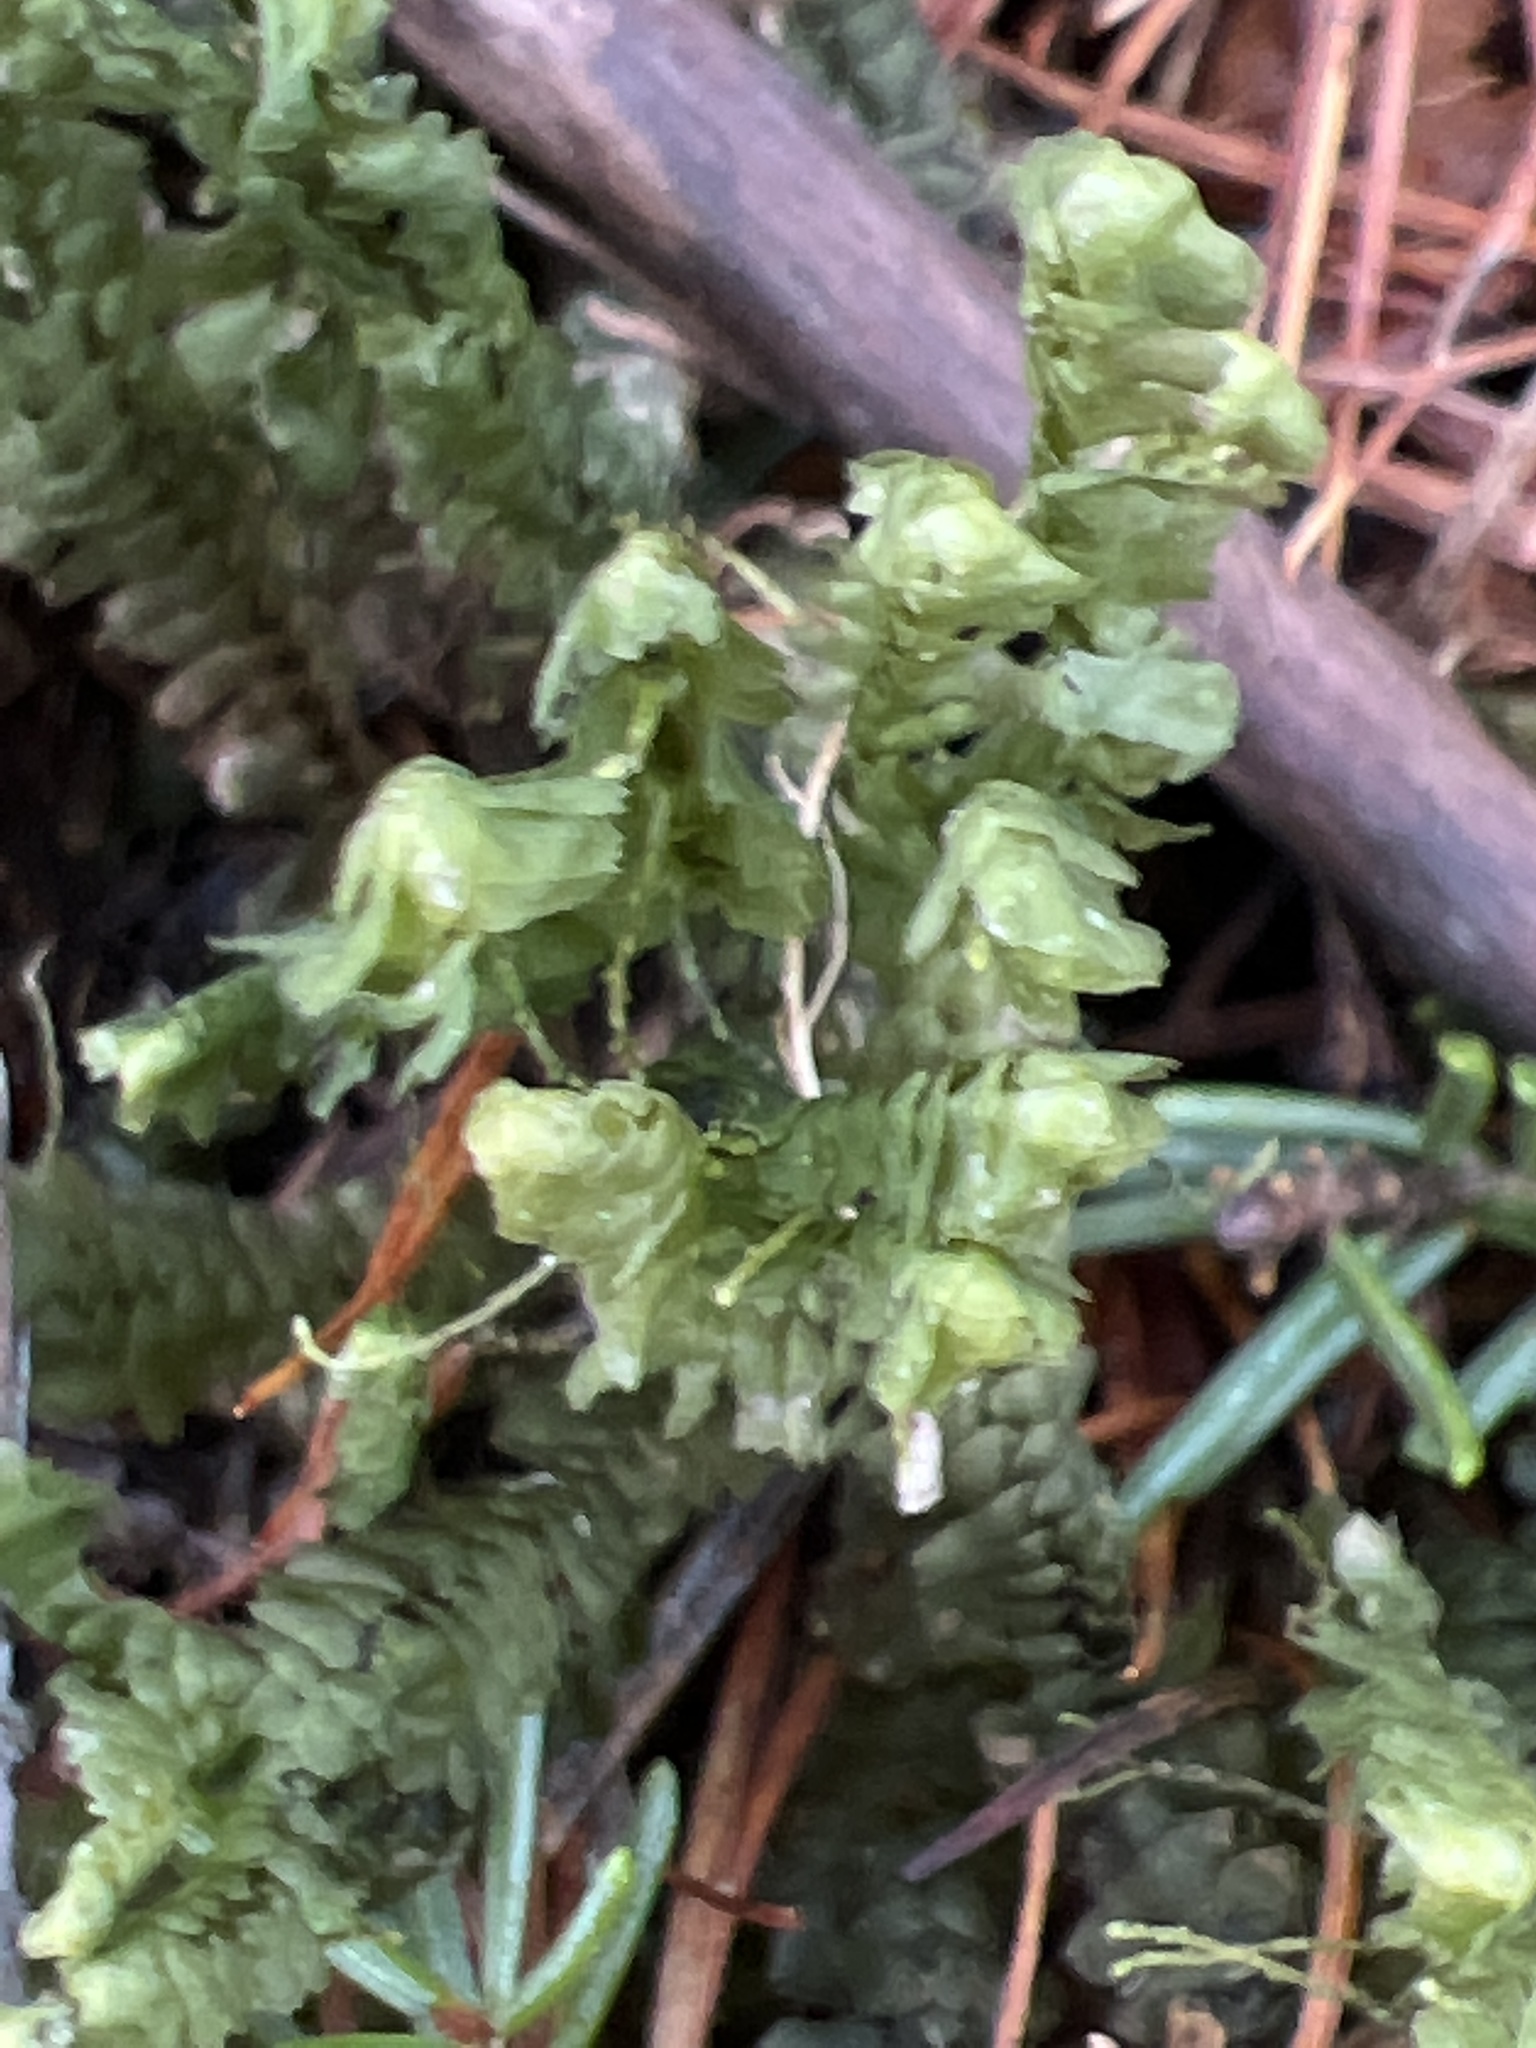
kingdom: Plantae
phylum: Marchantiophyta
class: Jungermanniopsida
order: Jungermanniales
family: Lepidoziaceae
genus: Bazzania
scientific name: Bazzania trilobata
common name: Three-lobed whipwort
